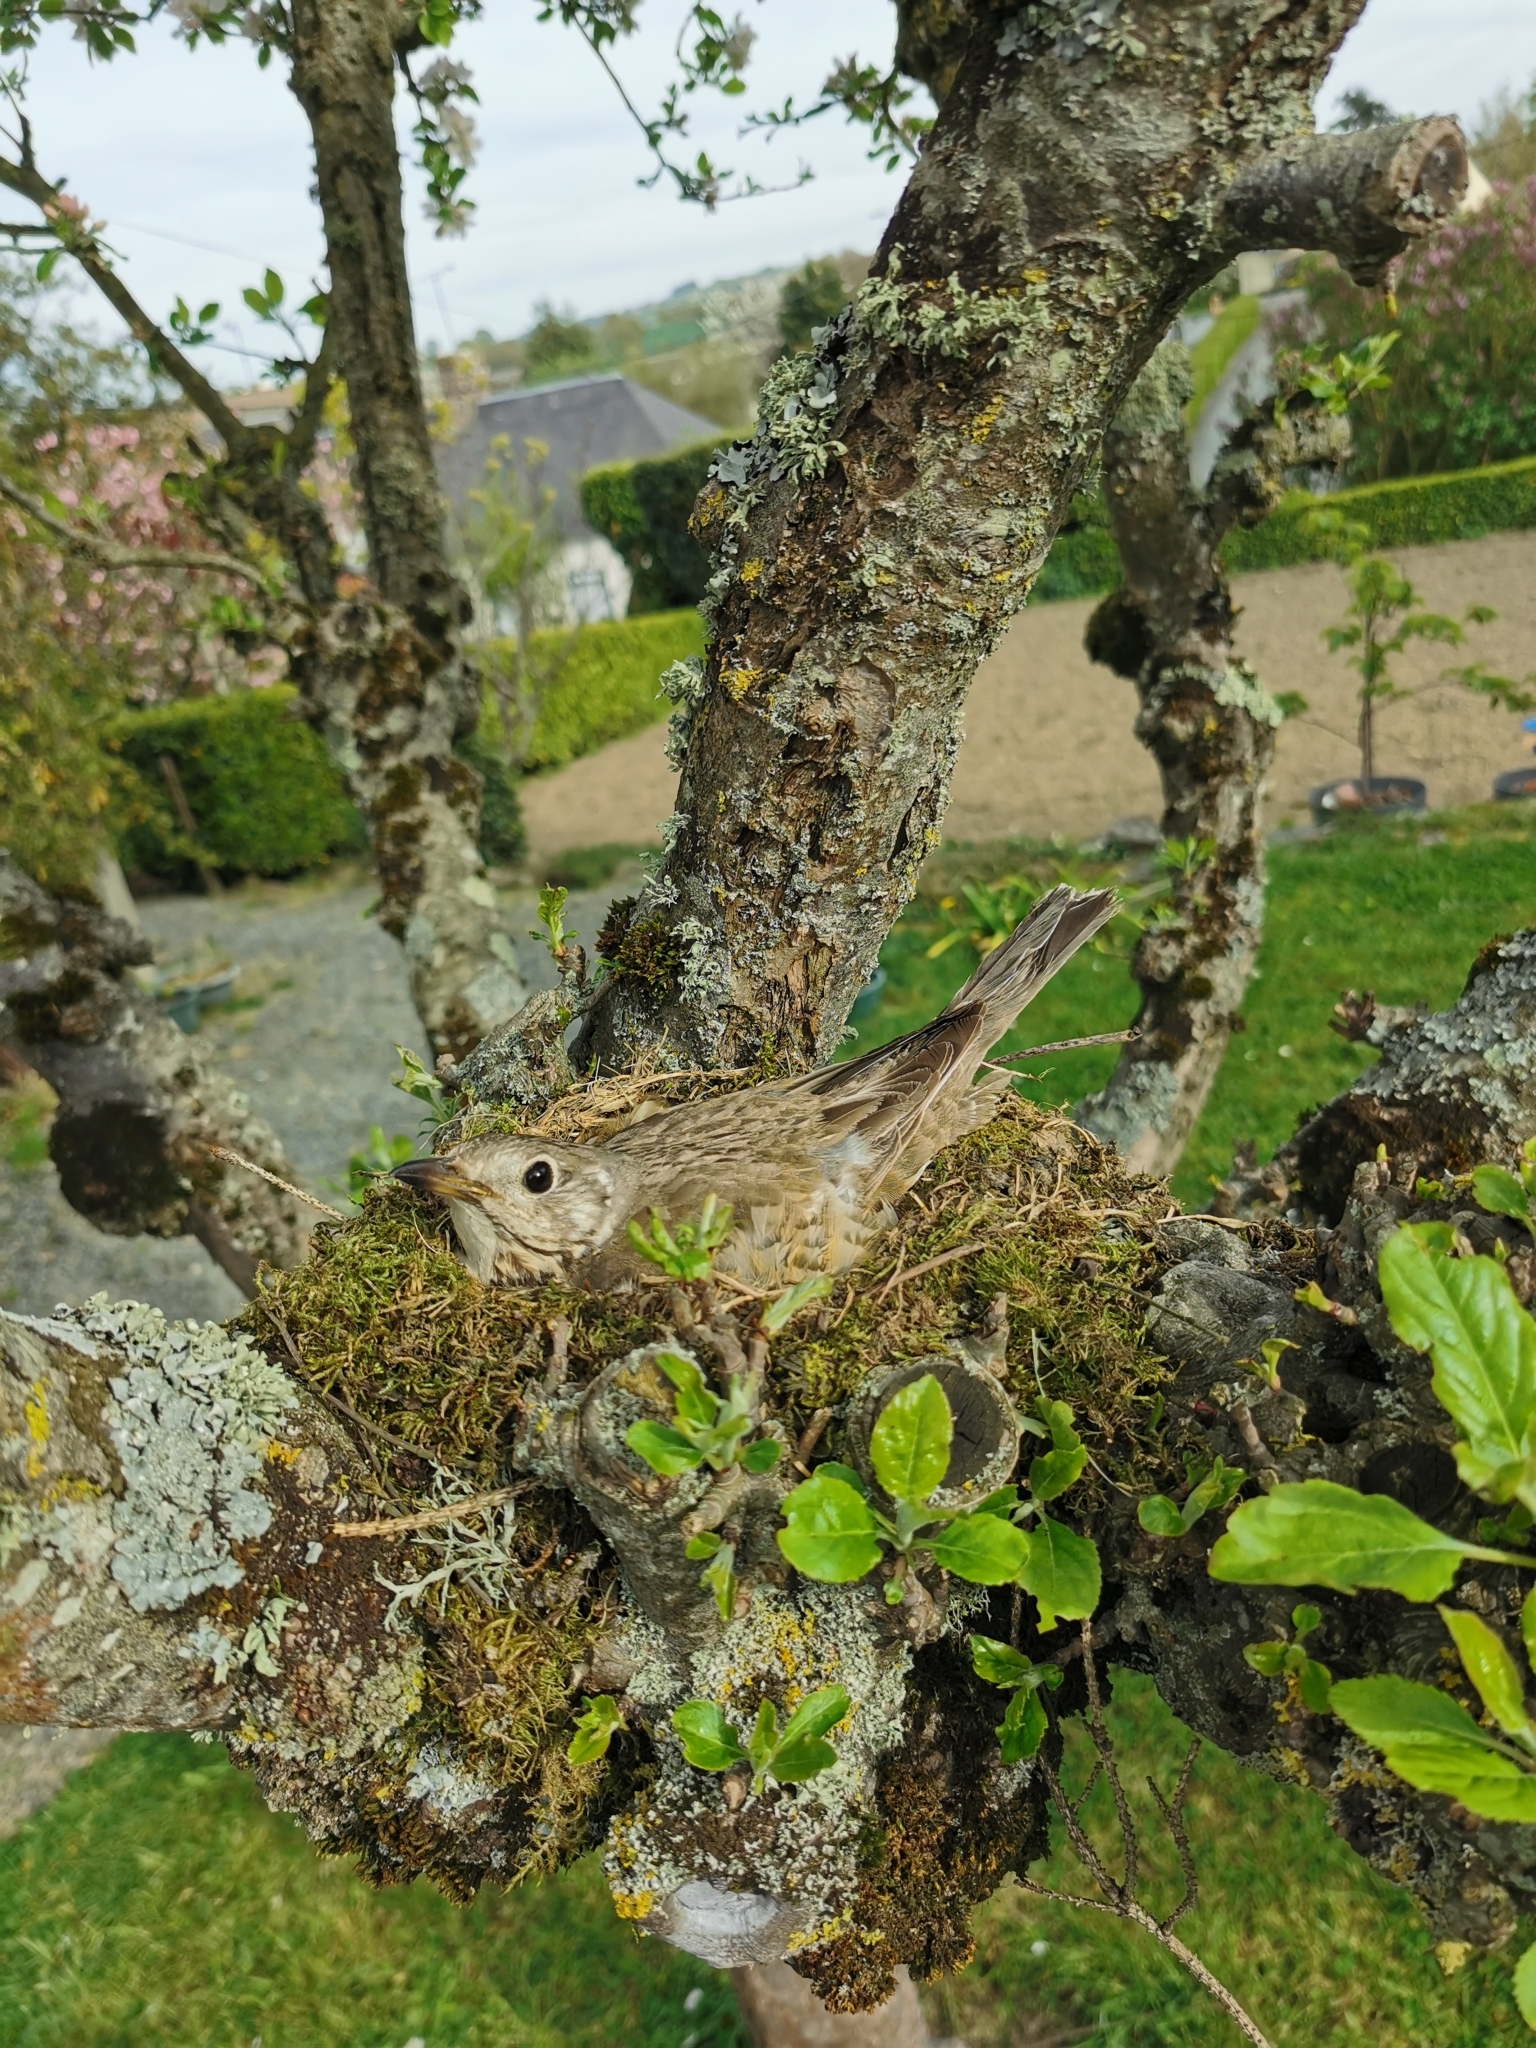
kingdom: Animalia
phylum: Chordata
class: Aves
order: Passeriformes
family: Turdidae
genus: Turdus
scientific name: Turdus viscivorus
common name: Mistle thrush
